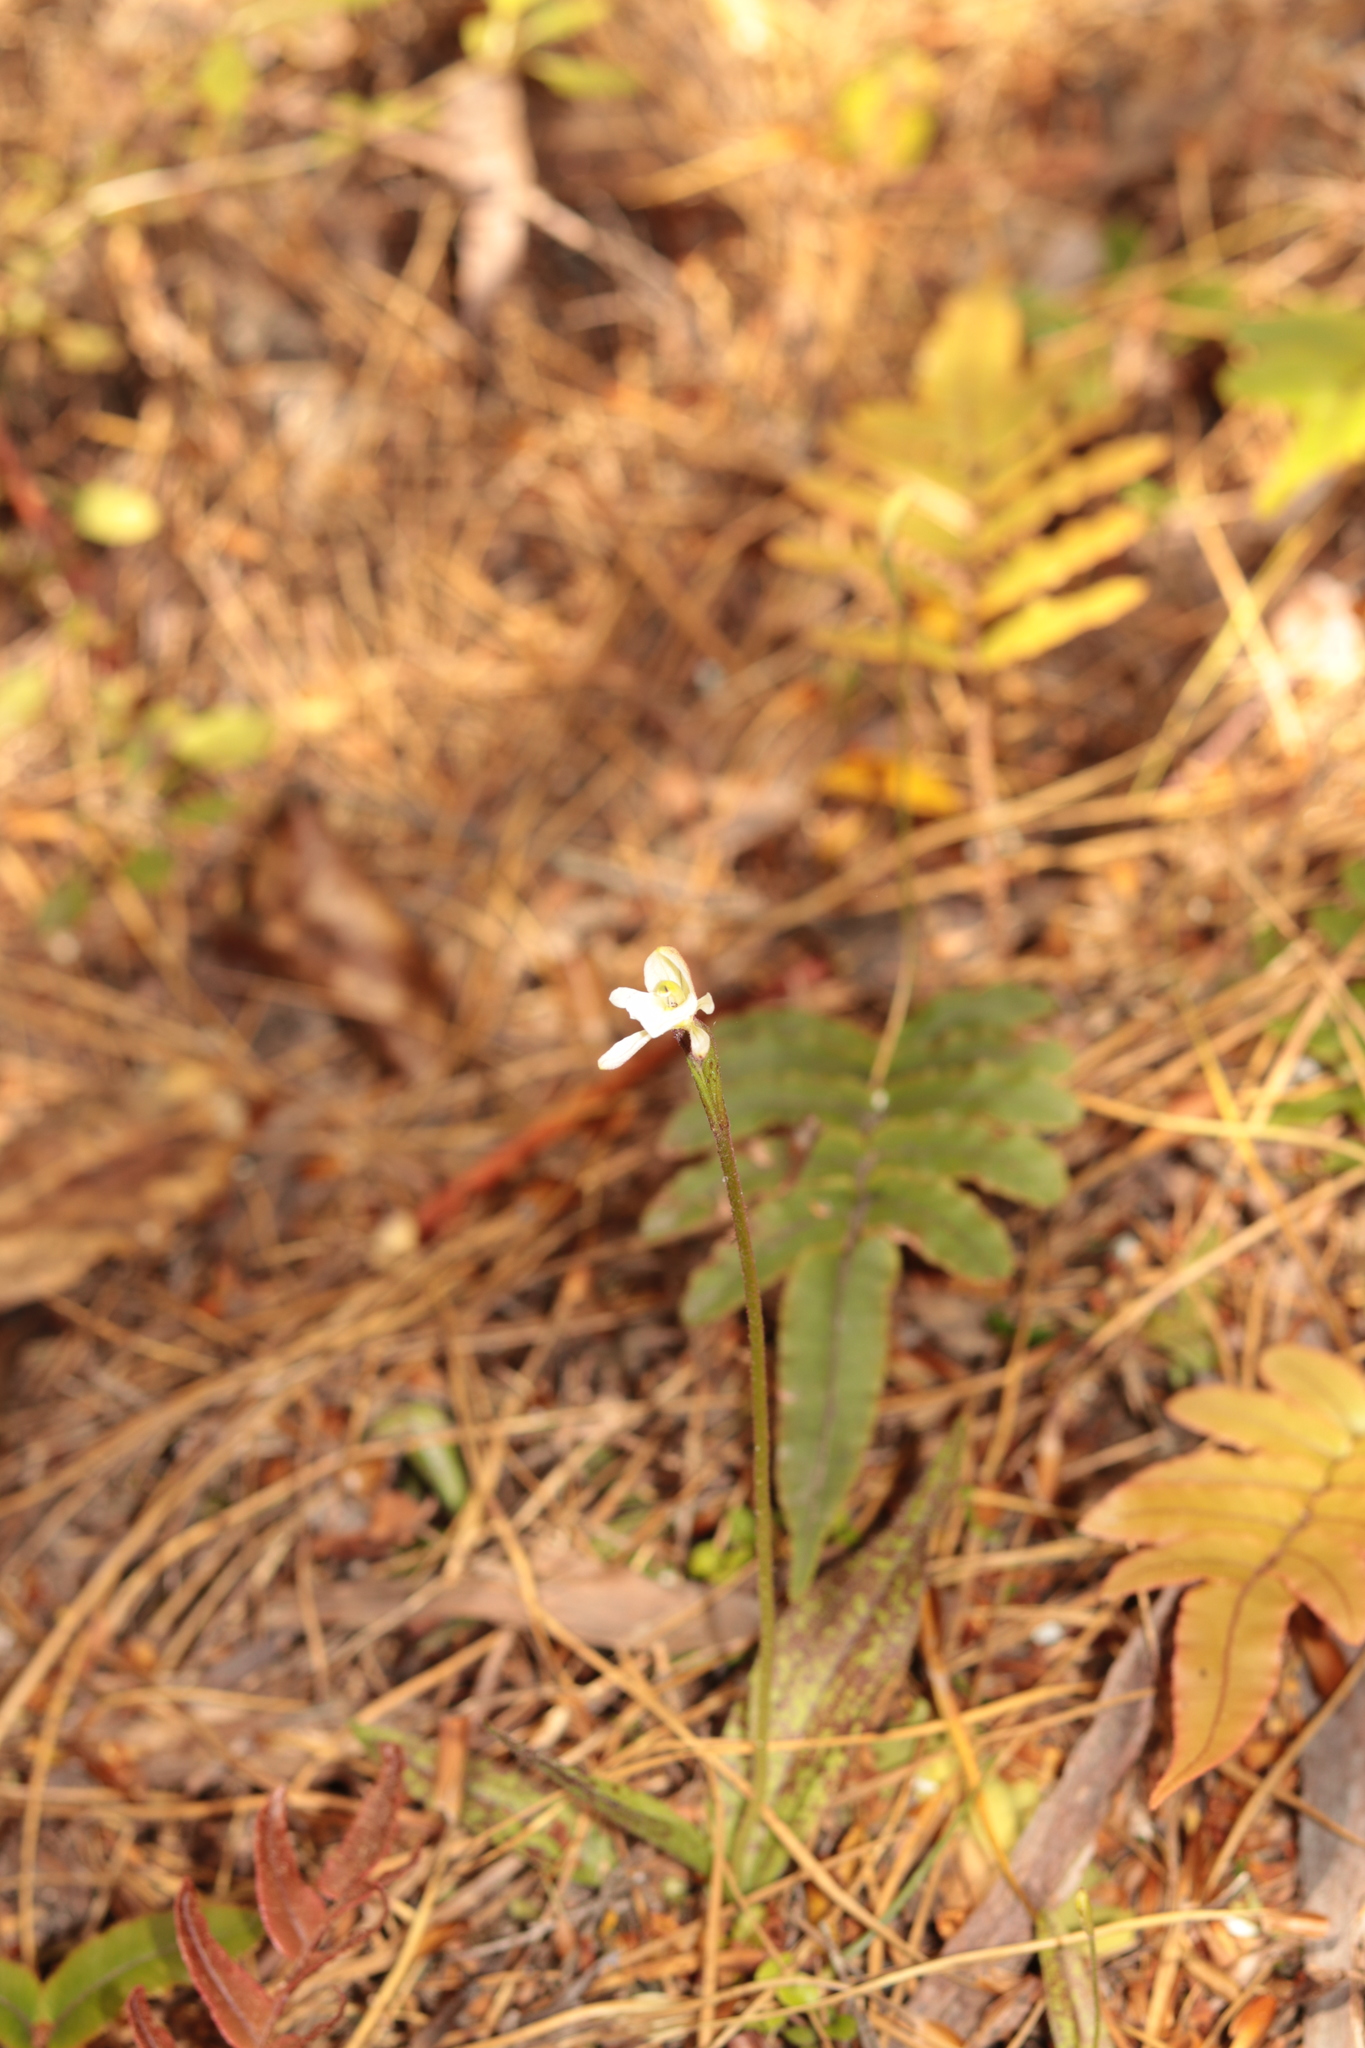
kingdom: Plantae
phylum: Tracheophyta
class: Liliopsida
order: Asparagales
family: Orchidaceae
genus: Aporostylis
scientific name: Aporostylis bifolia
